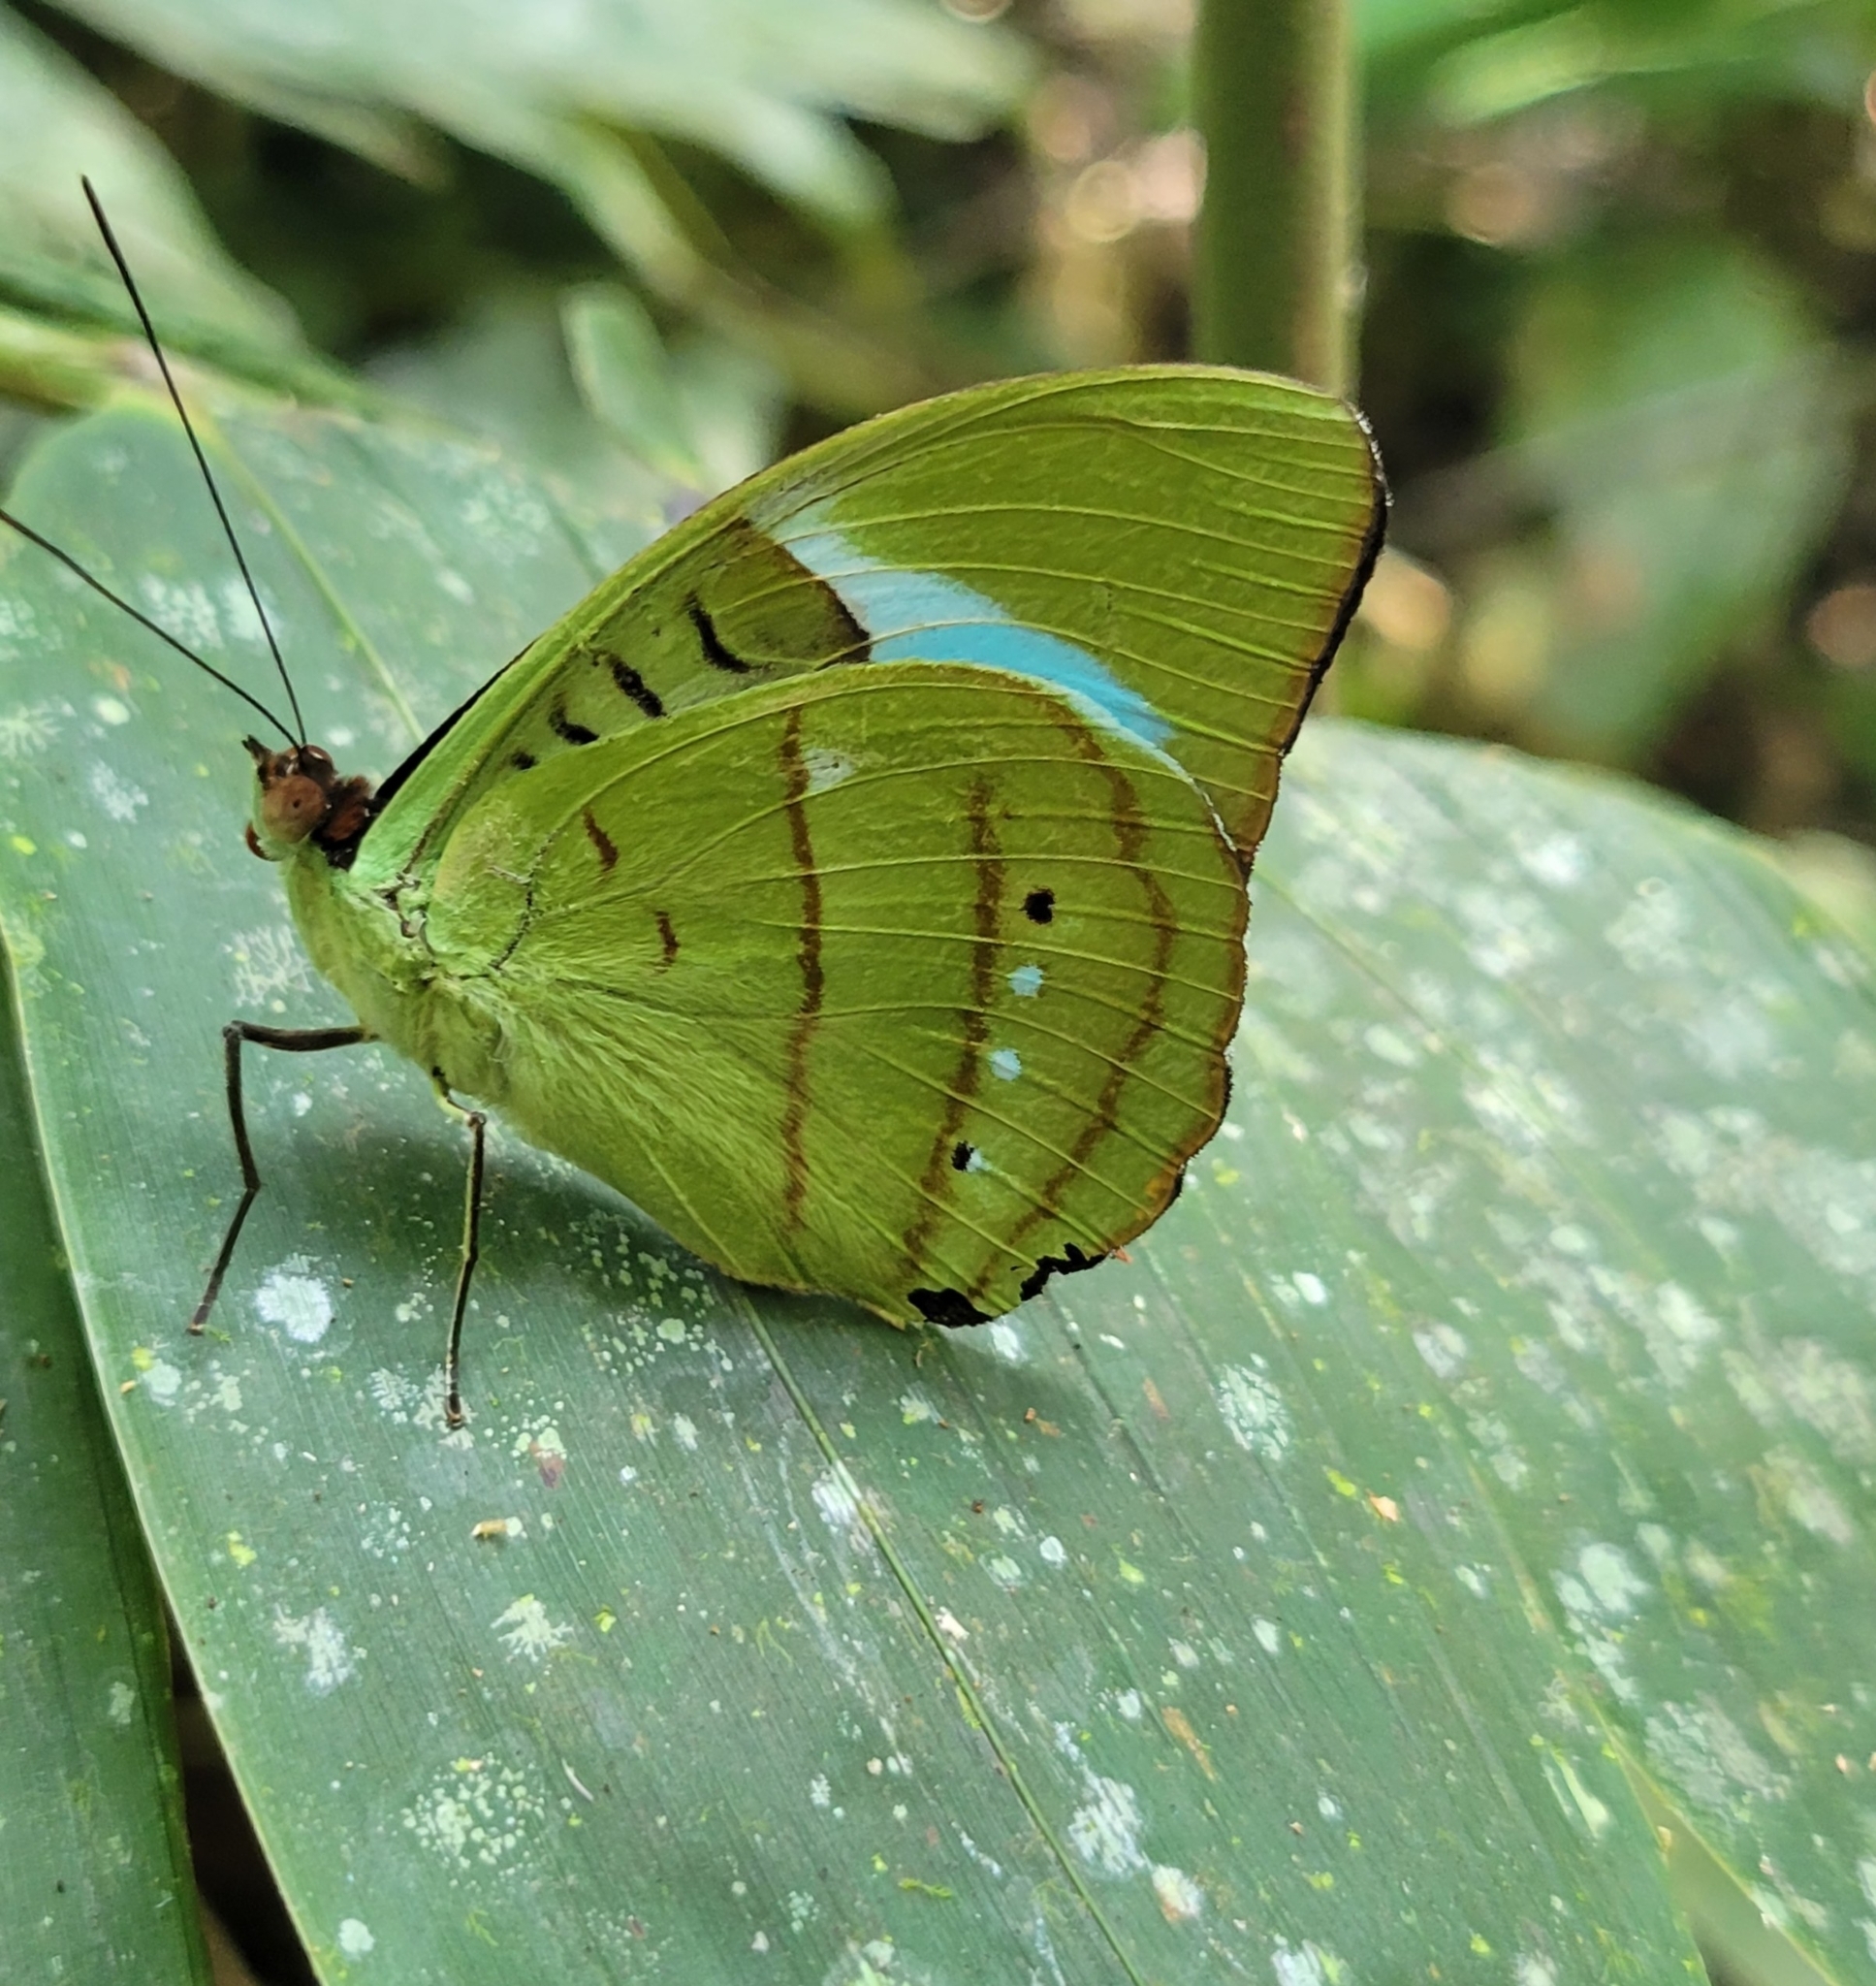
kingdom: Animalia
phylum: Arthropoda
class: Insecta
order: Lepidoptera
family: Nymphalidae
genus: Nessaea
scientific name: Nessaea hewitsonii
